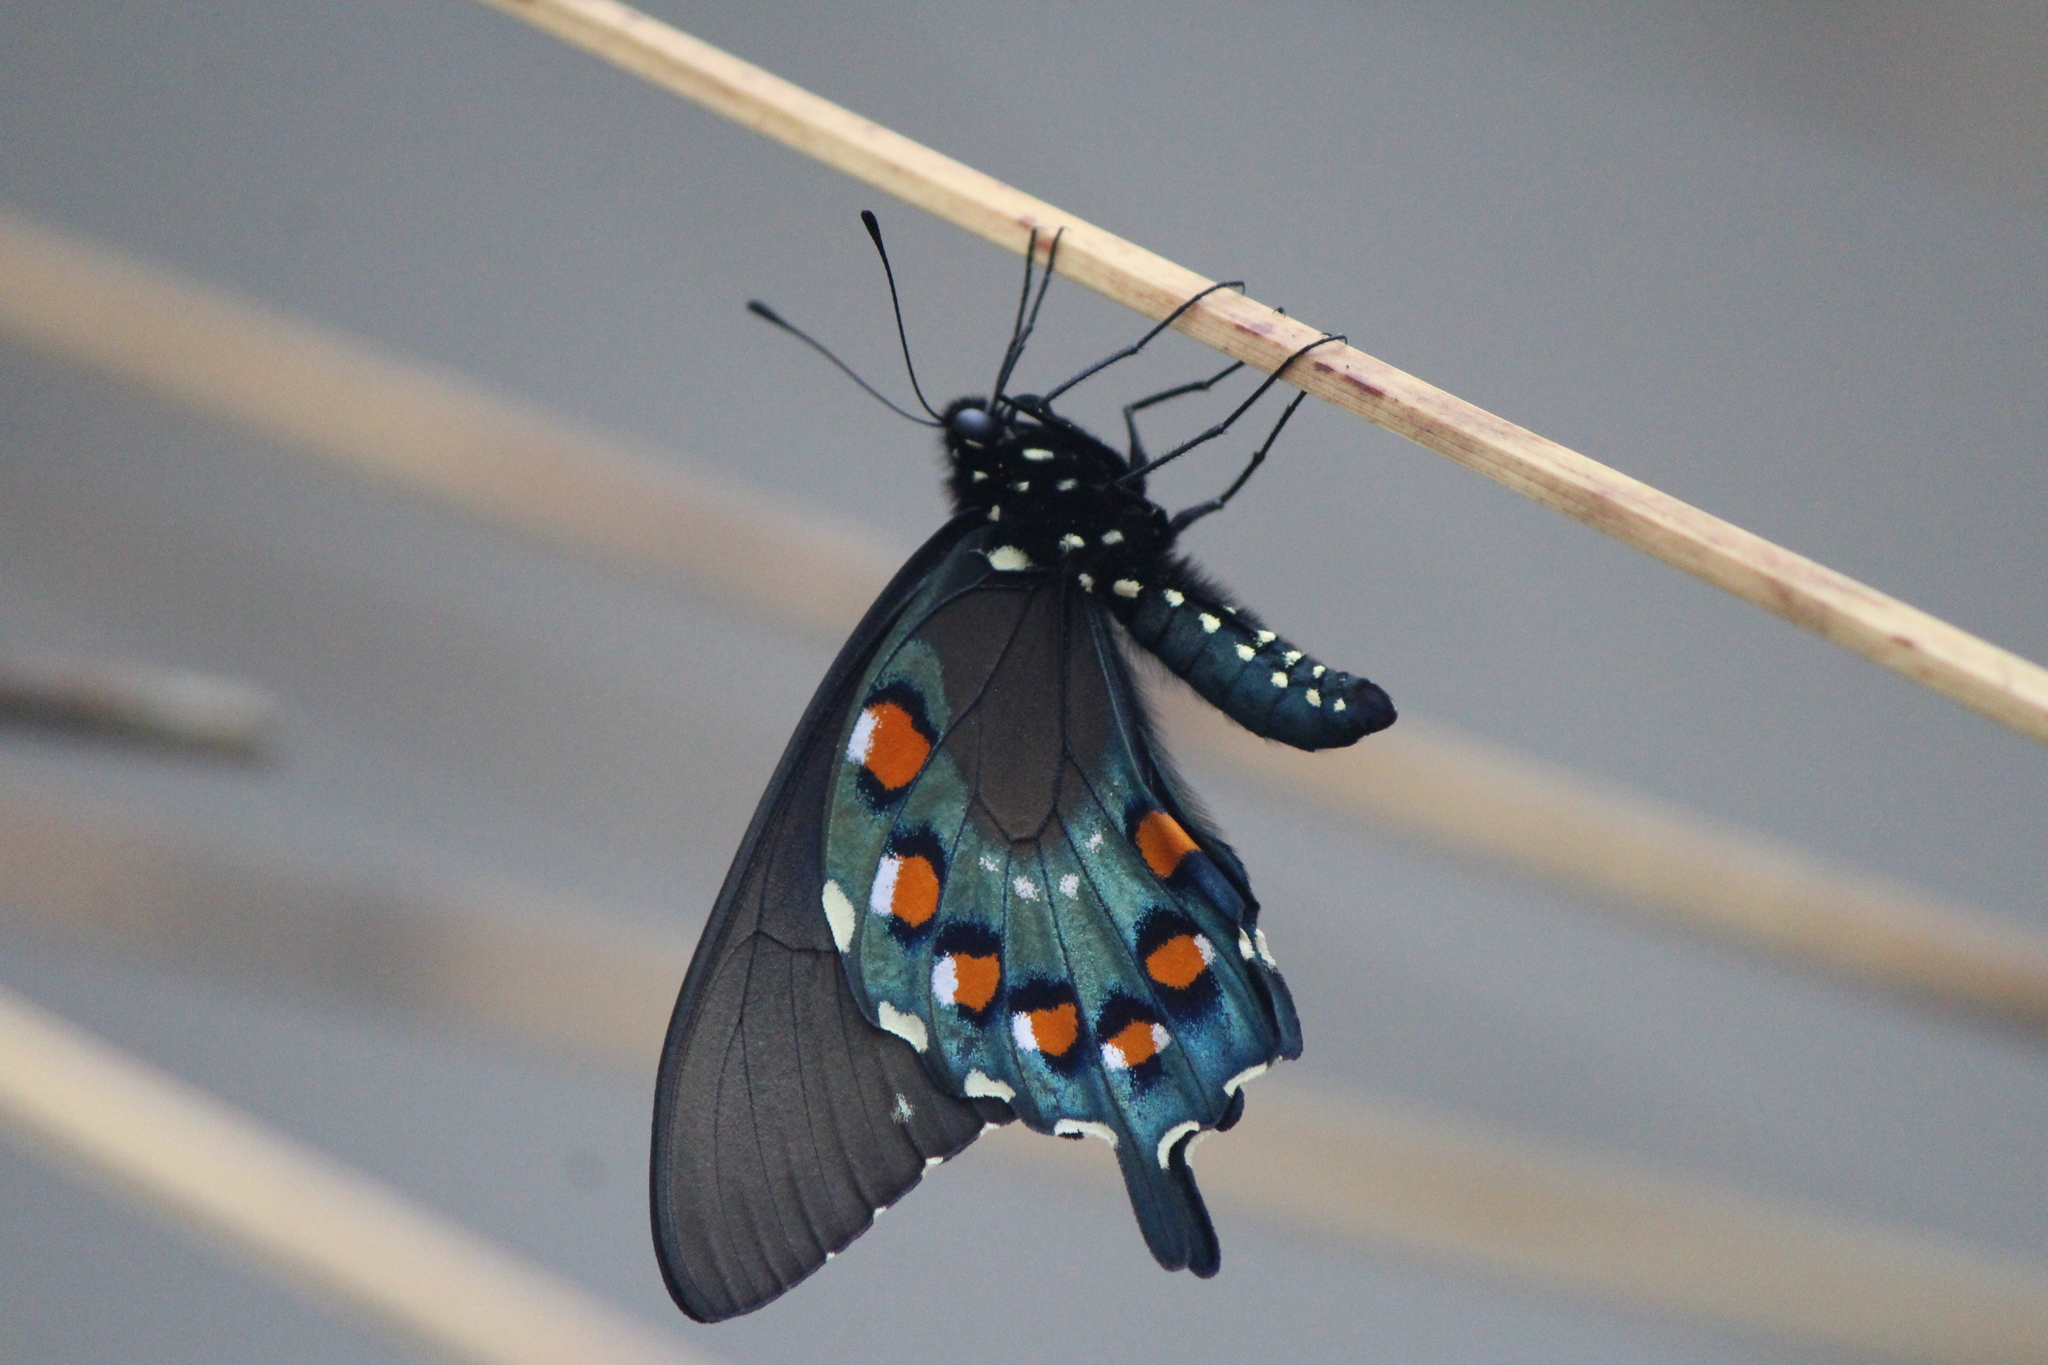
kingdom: Animalia
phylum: Arthropoda
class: Insecta
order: Lepidoptera
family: Papilionidae
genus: Battus
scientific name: Battus philenor
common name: Pipevine swallowtail
